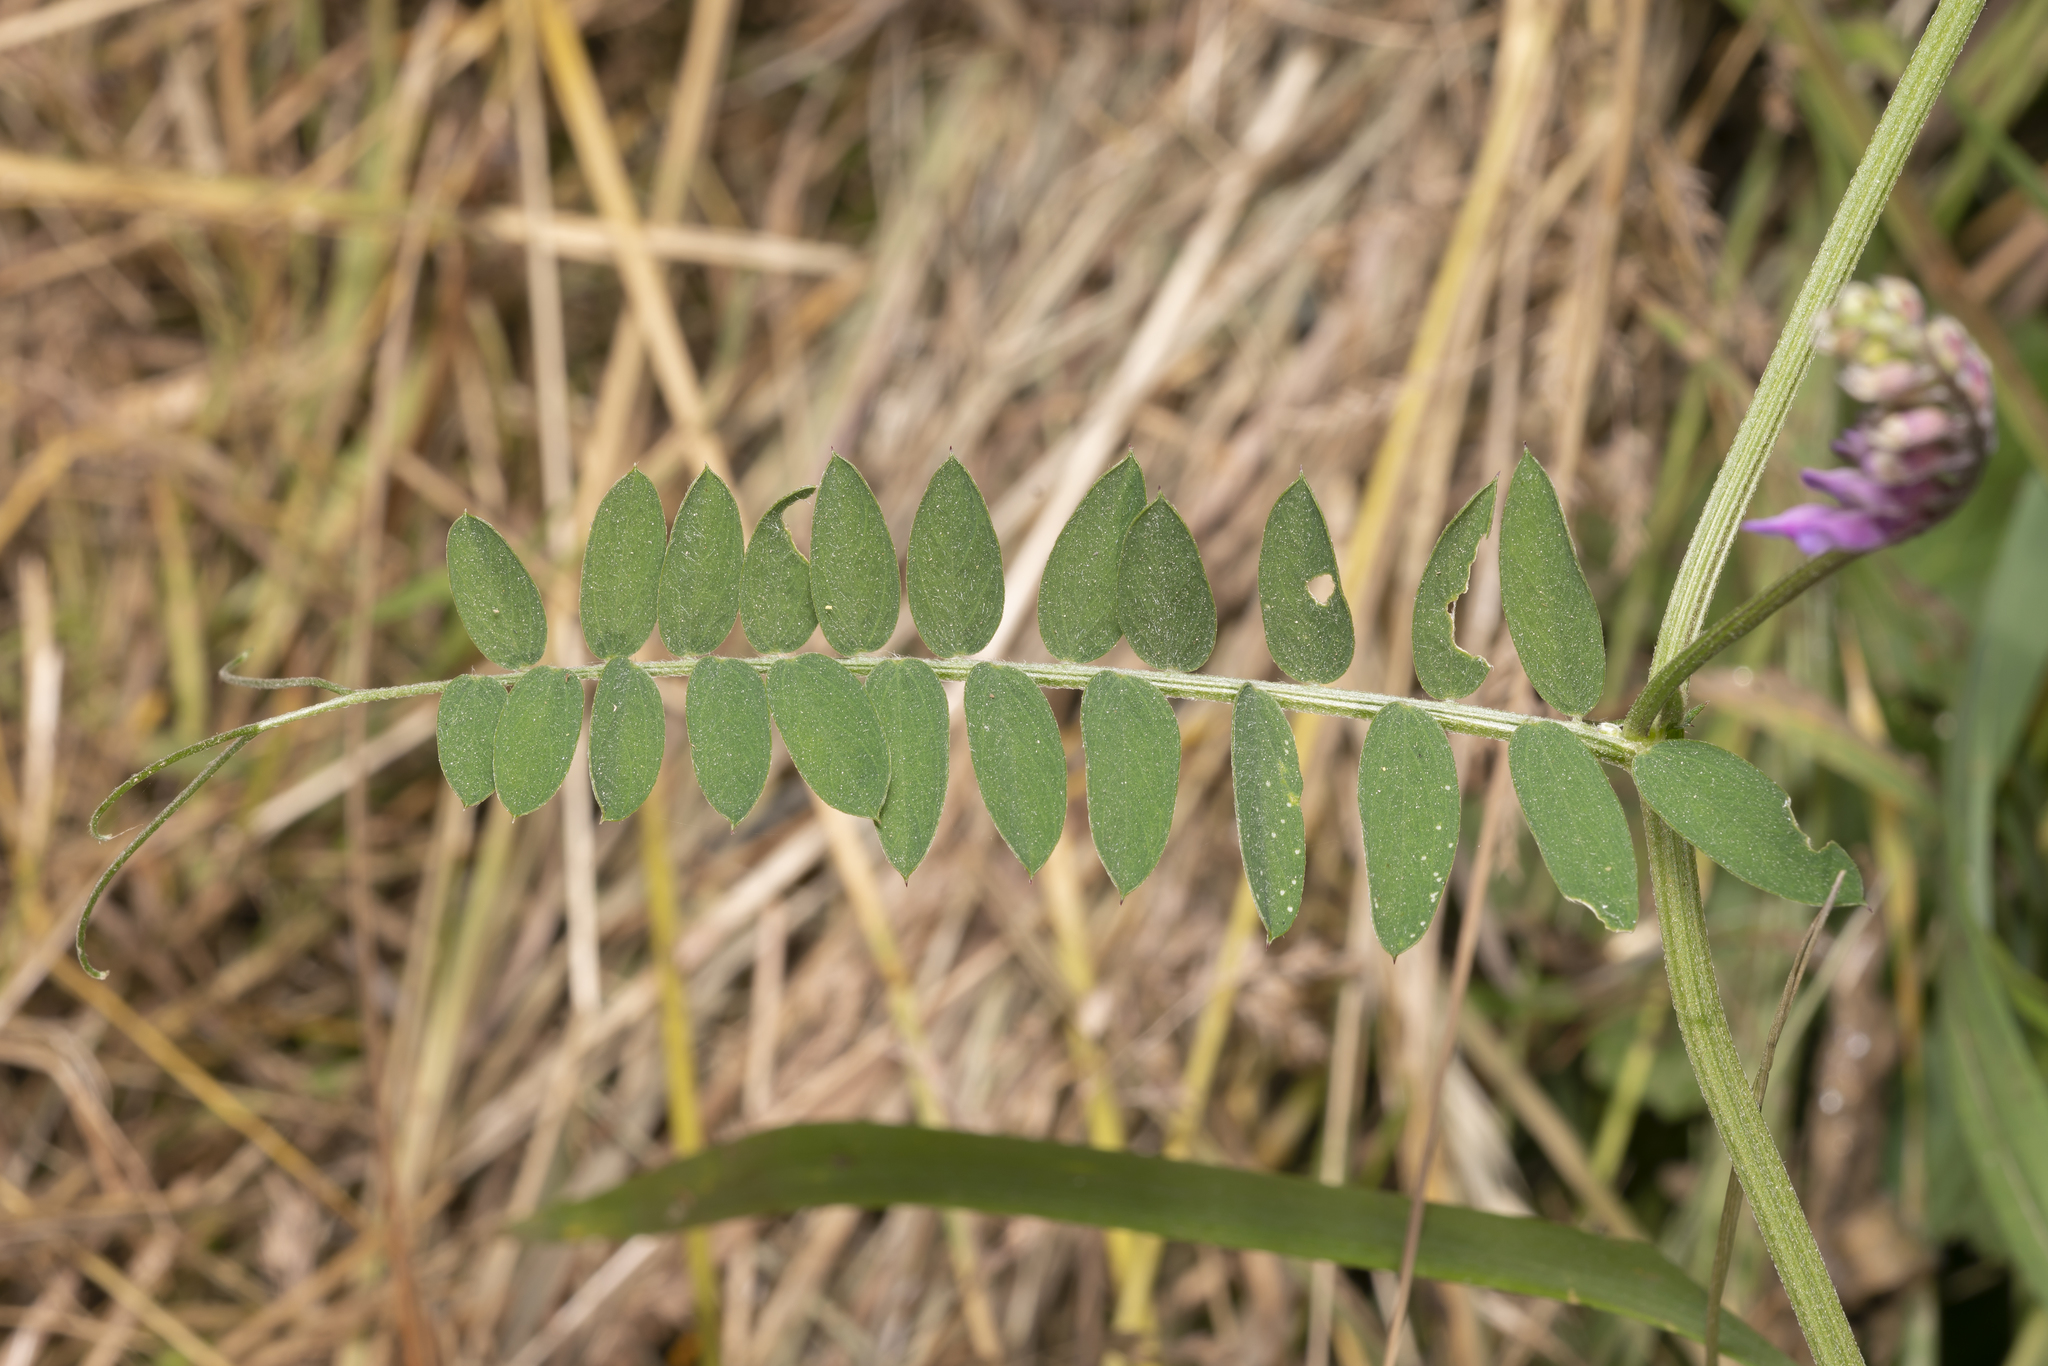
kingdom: Plantae
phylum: Tracheophyta
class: Magnoliopsida
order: Fabales
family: Fabaceae
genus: Vicia
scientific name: Vicia cracca
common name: Bird vetch
